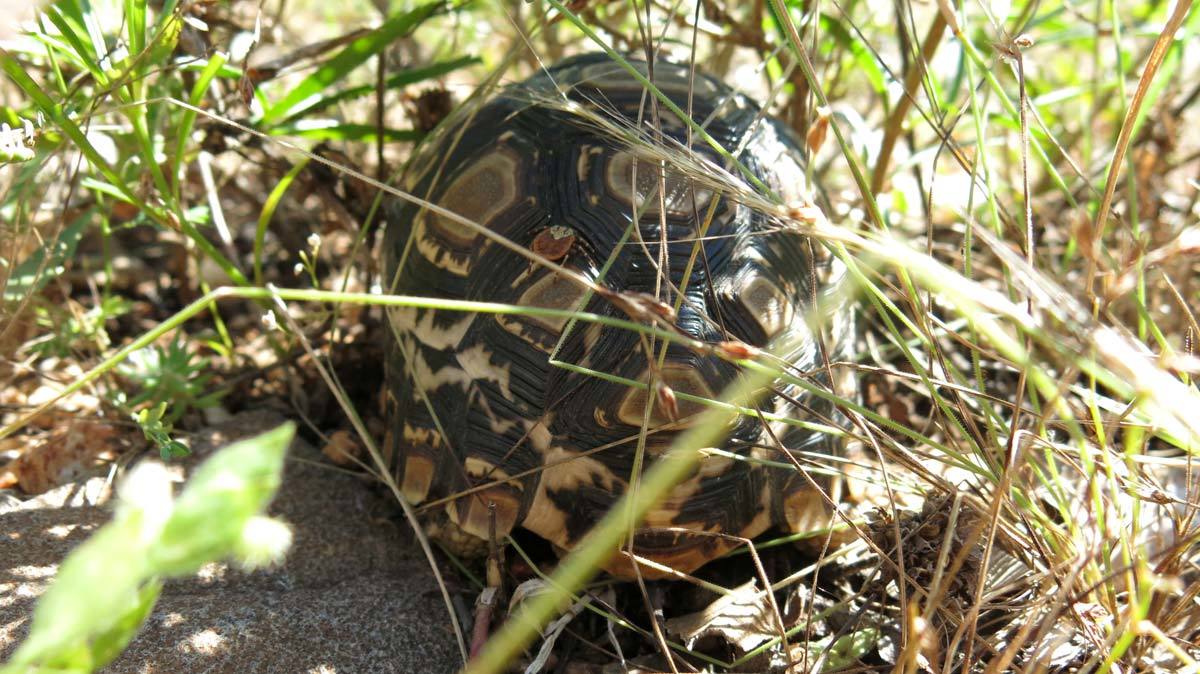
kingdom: Animalia
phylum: Chordata
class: Testudines
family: Testudinidae
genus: Stigmochelys
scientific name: Stigmochelys pardalis
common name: Leopard tortoise
